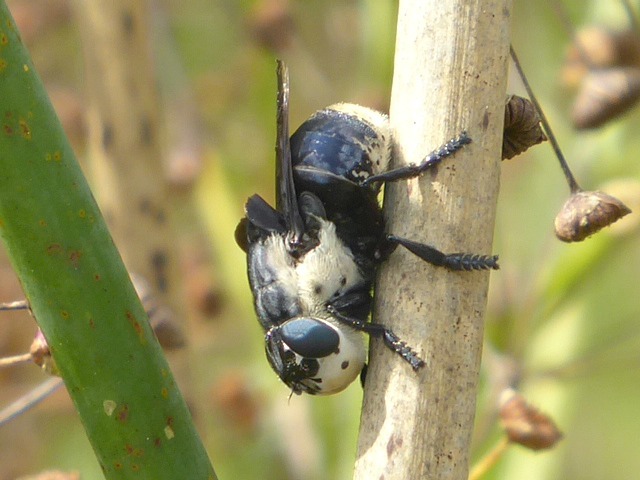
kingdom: Animalia
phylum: Arthropoda
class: Insecta
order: Diptera
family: Oestridae
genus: Cuterebra
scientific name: Cuterebra fontinella
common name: Mouse bot fly
